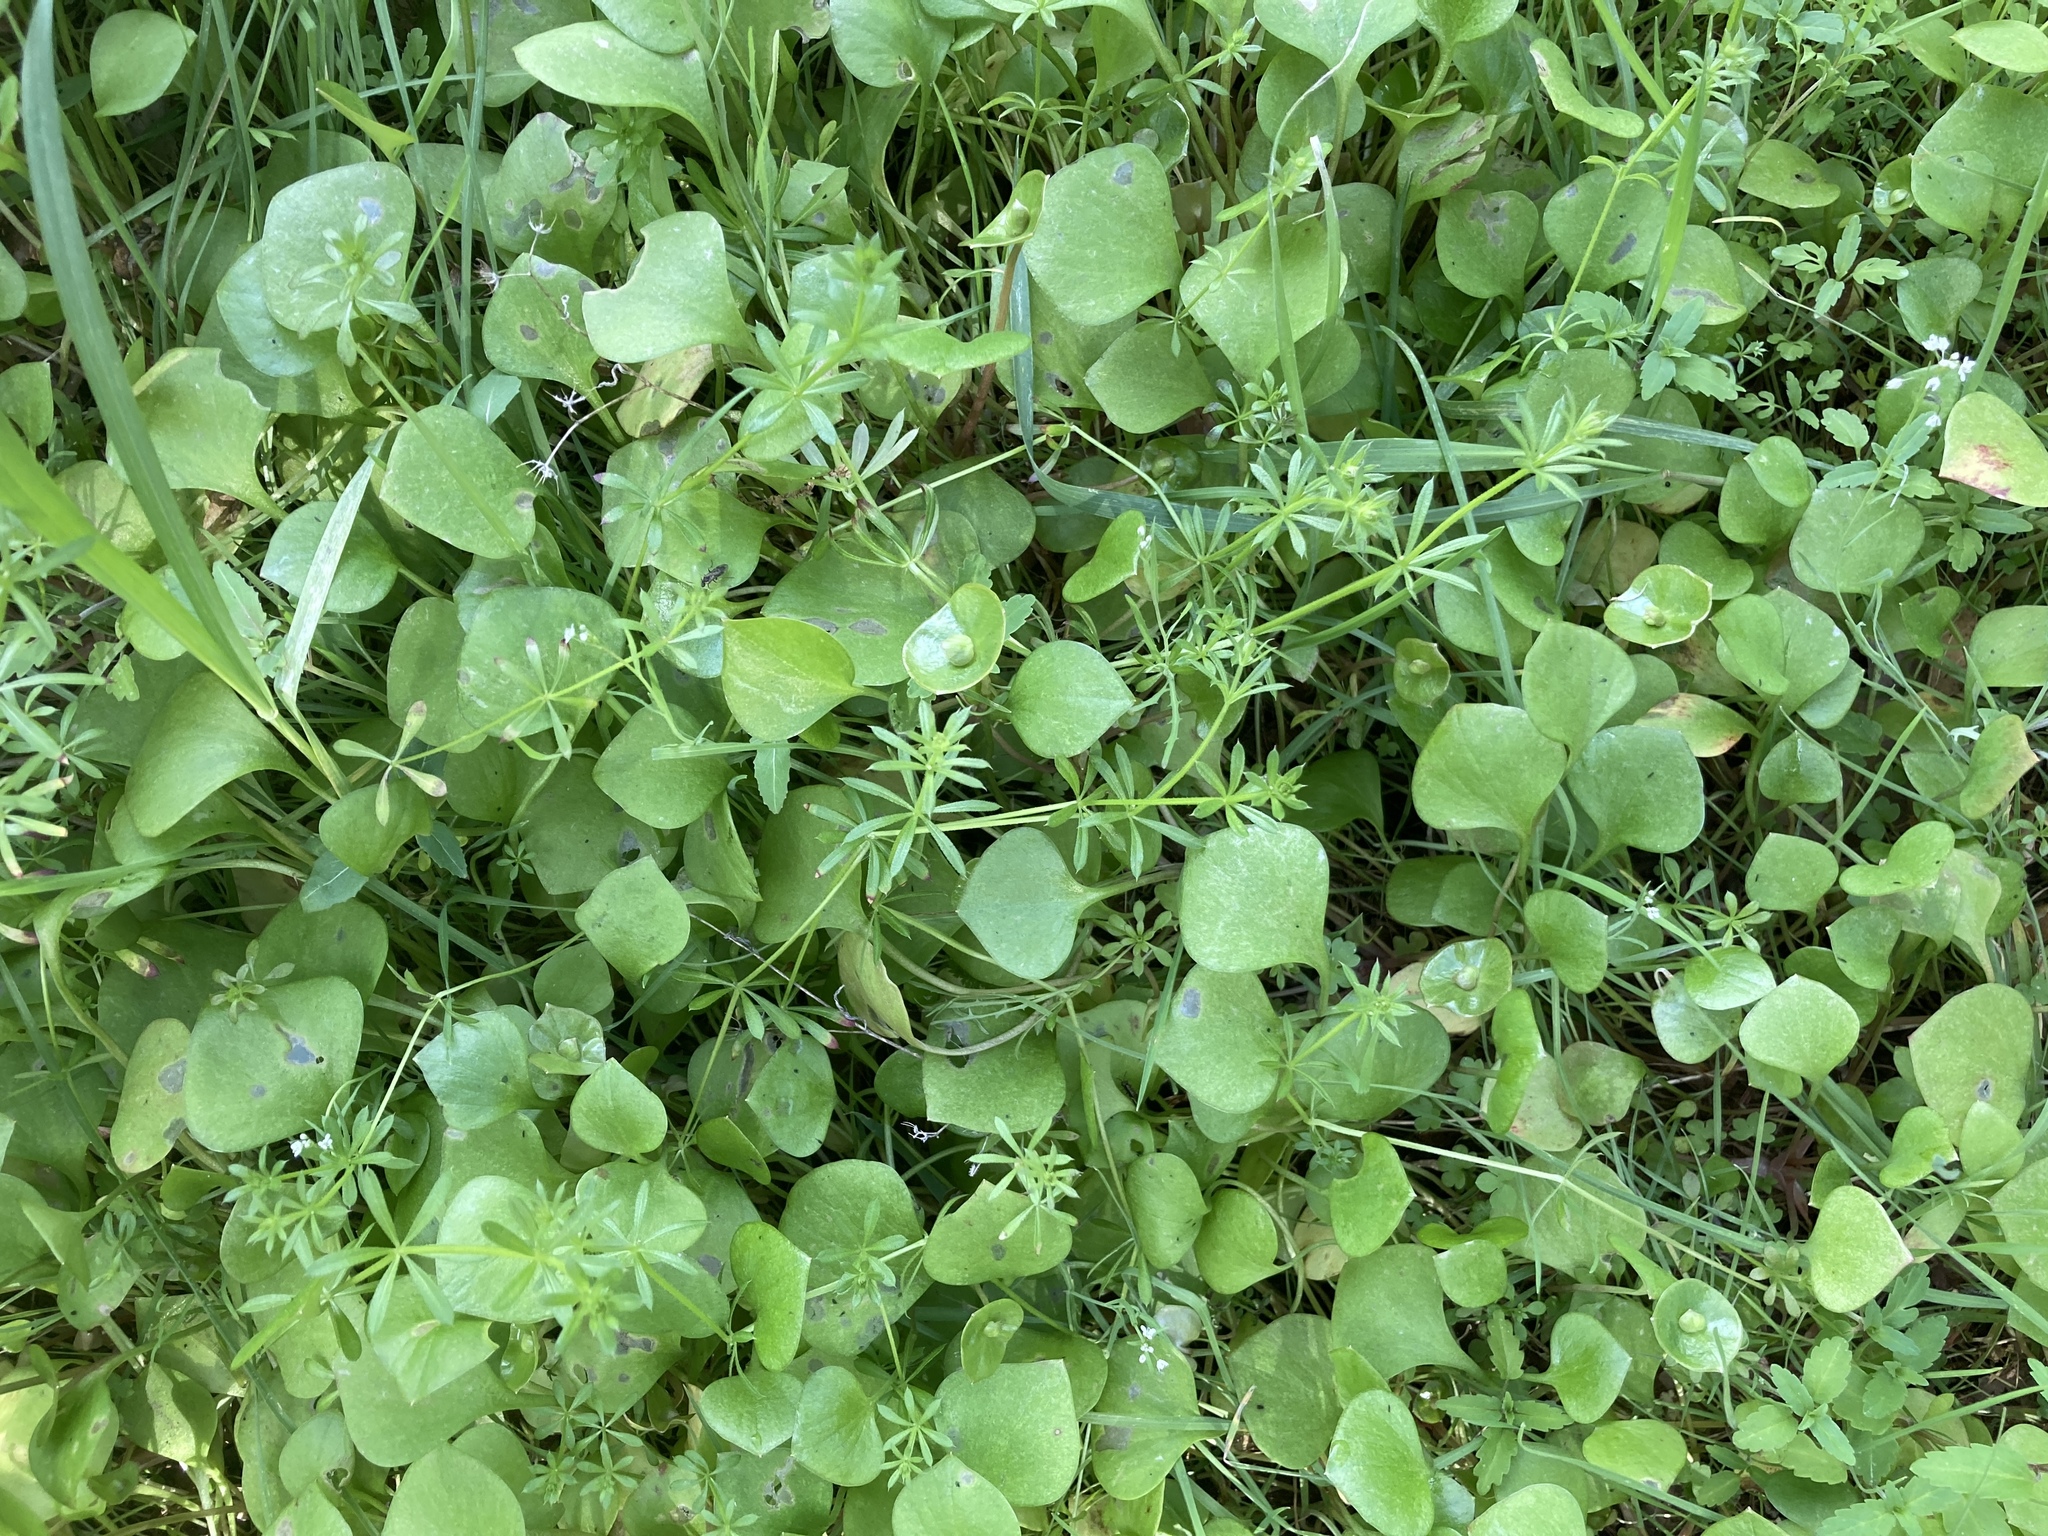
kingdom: Plantae
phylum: Tracheophyta
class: Magnoliopsida
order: Caryophyllales
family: Montiaceae
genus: Claytonia
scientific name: Claytonia perfoliata
